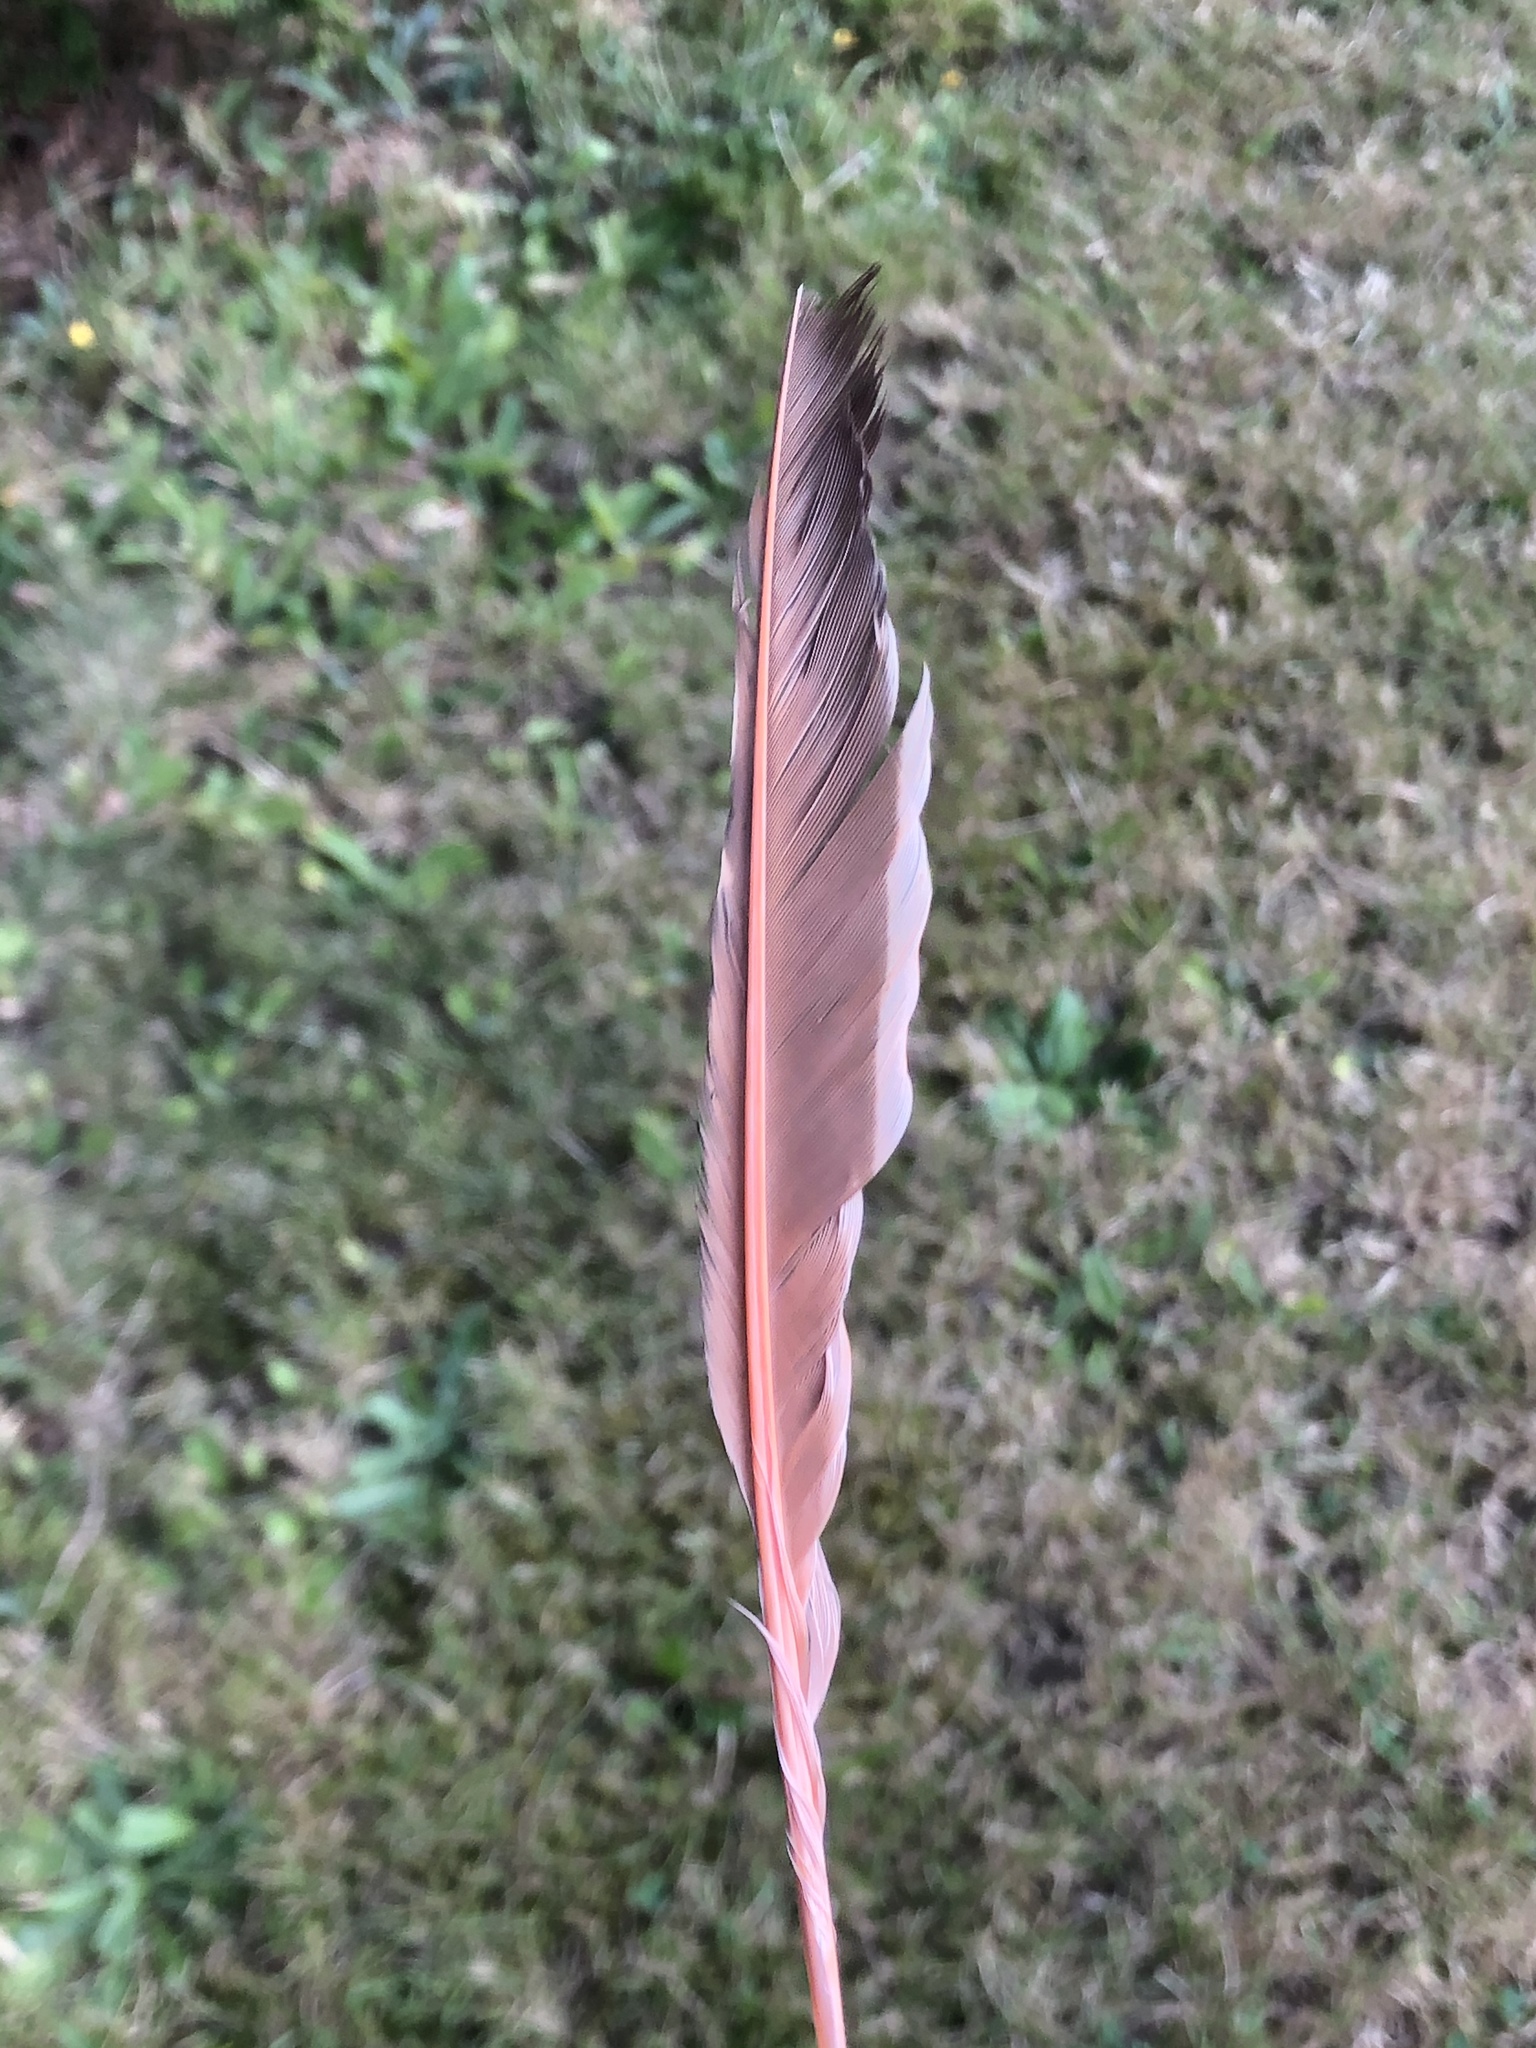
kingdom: Animalia
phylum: Chordata
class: Aves
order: Piciformes
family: Picidae
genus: Colaptes
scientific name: Colaptes auratus
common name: Northern flicker
